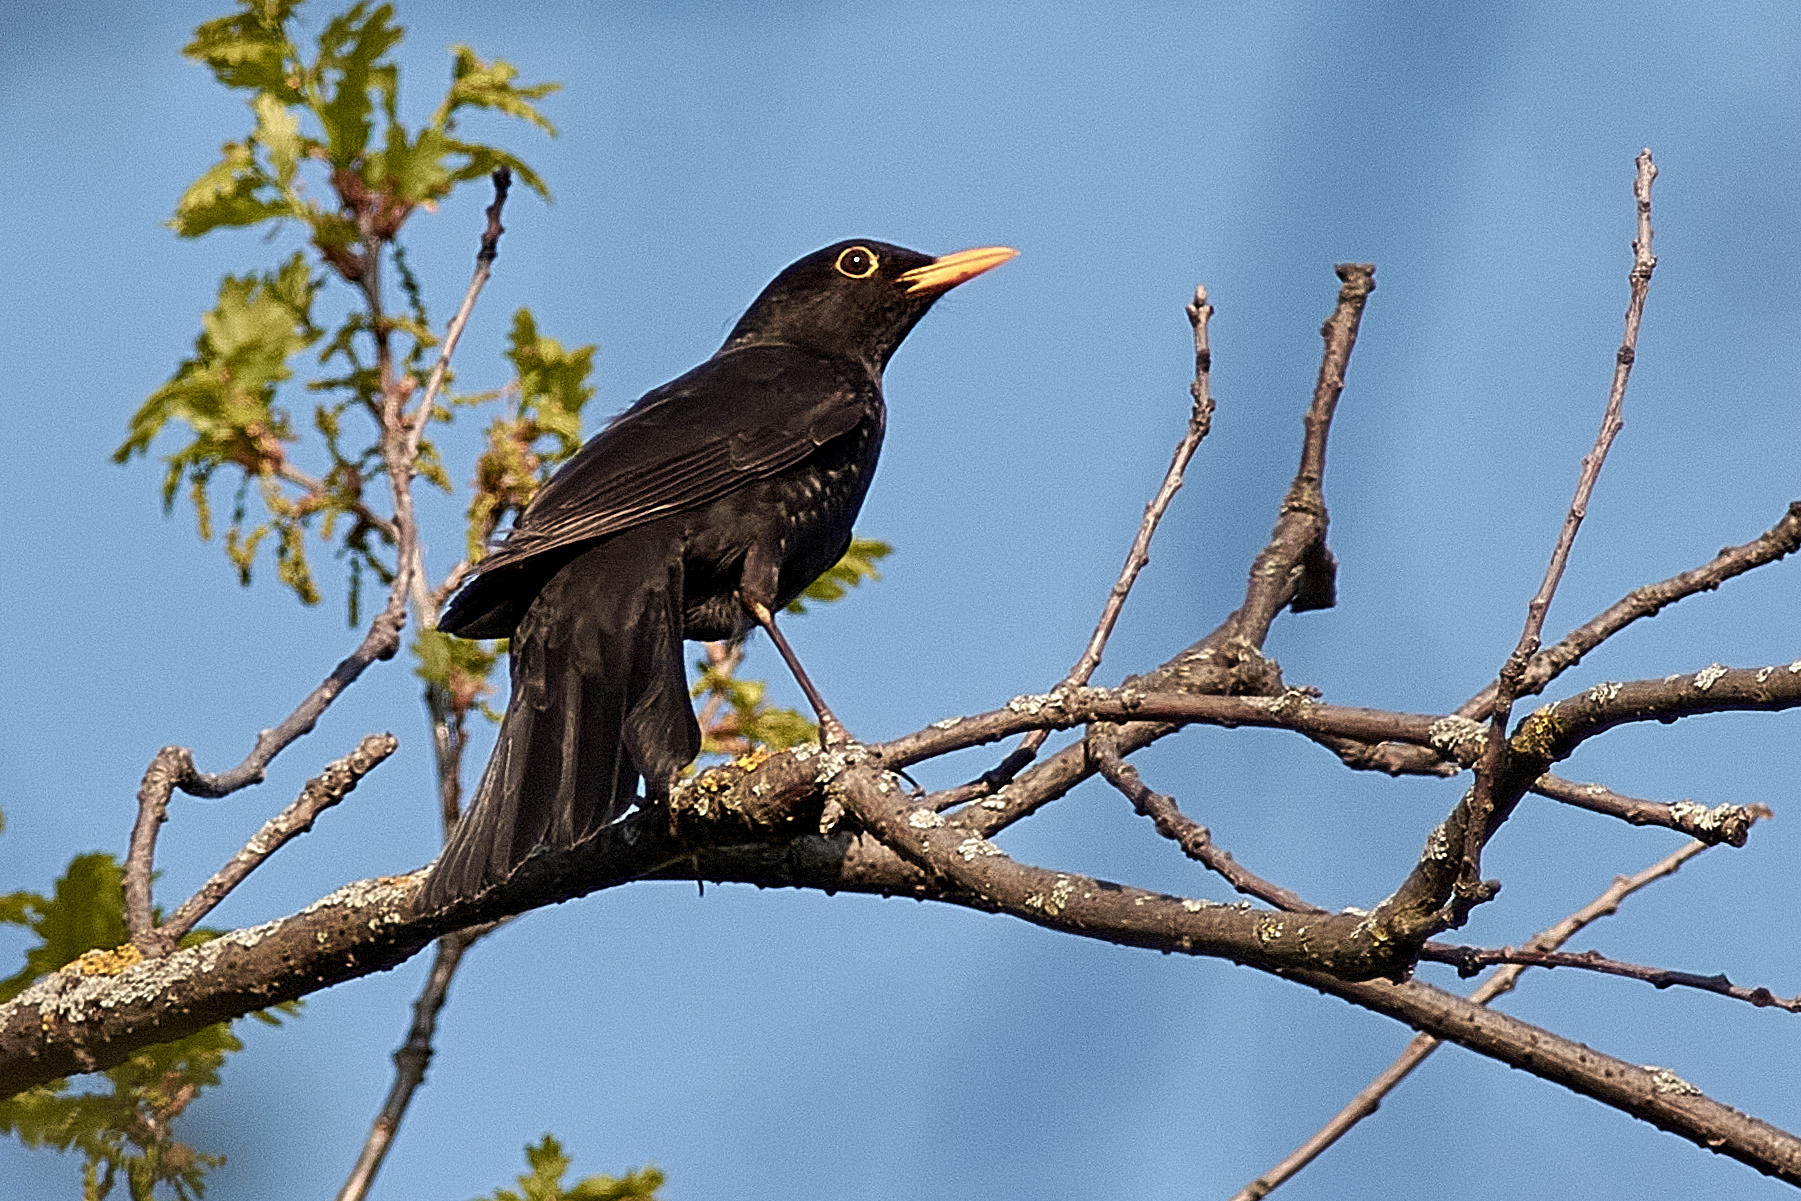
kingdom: Animalia
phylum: Chordata
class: Aves
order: Passeriformes
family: Turdidae
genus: Turdus
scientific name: Turdus merula
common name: Common blackbird
